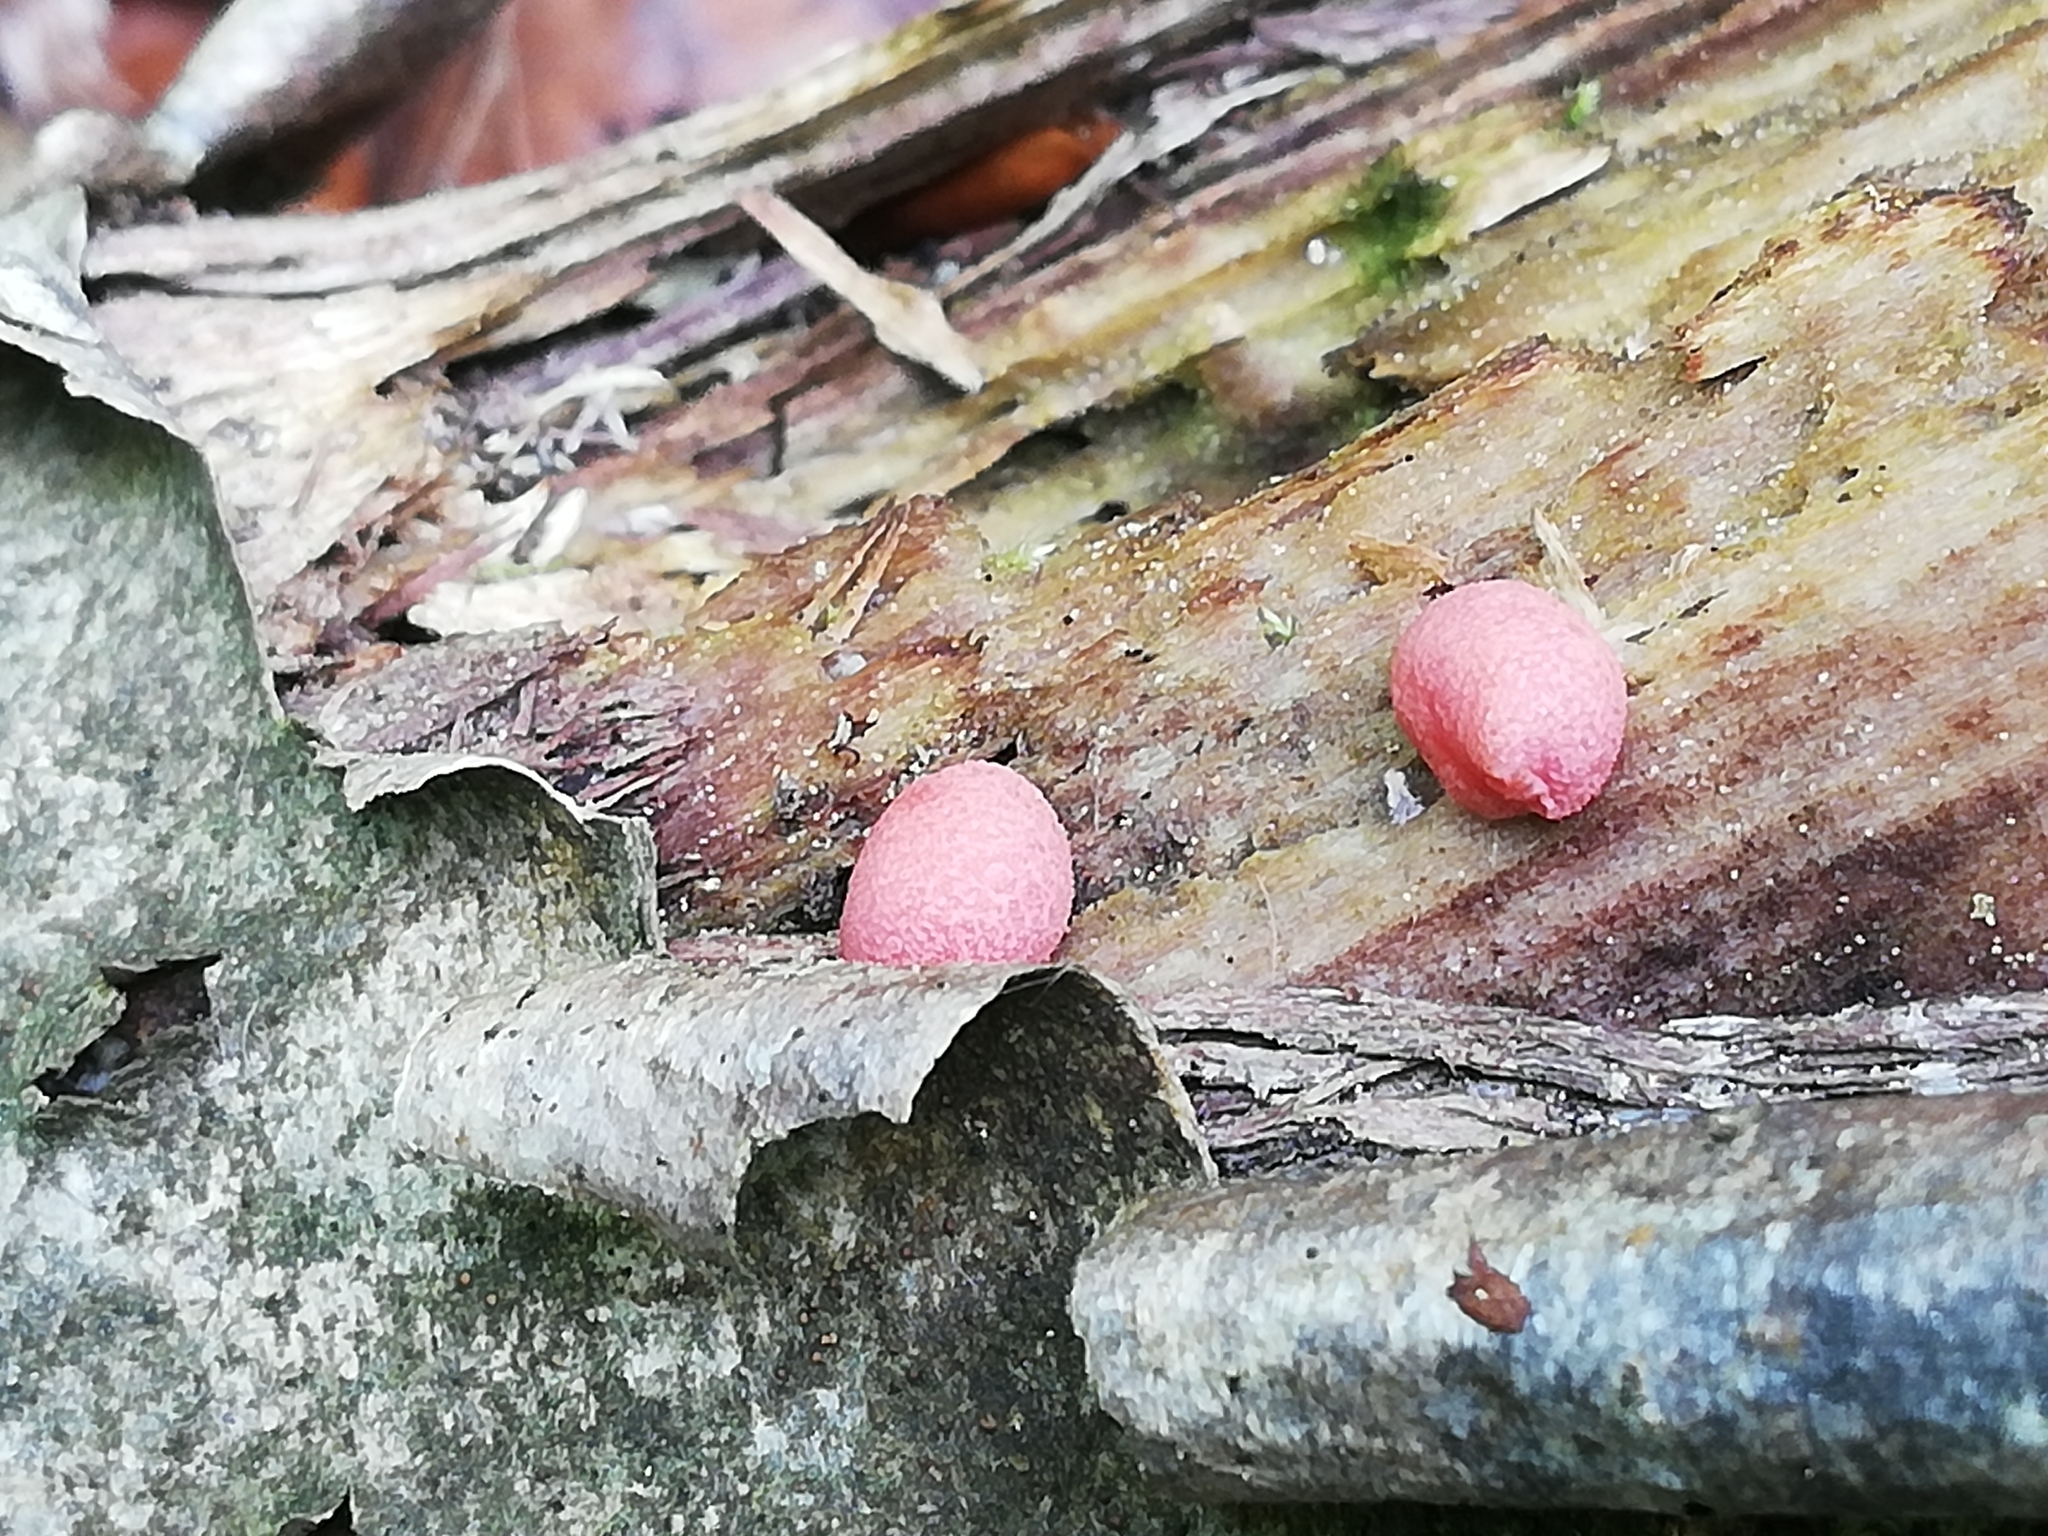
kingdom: Protozoa
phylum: Mycetozoa
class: Myxomycetes
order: Cribrariales
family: Tubiferaceae
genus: Lycogala
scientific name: Lycogala epidendrum
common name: Wolf's milk
